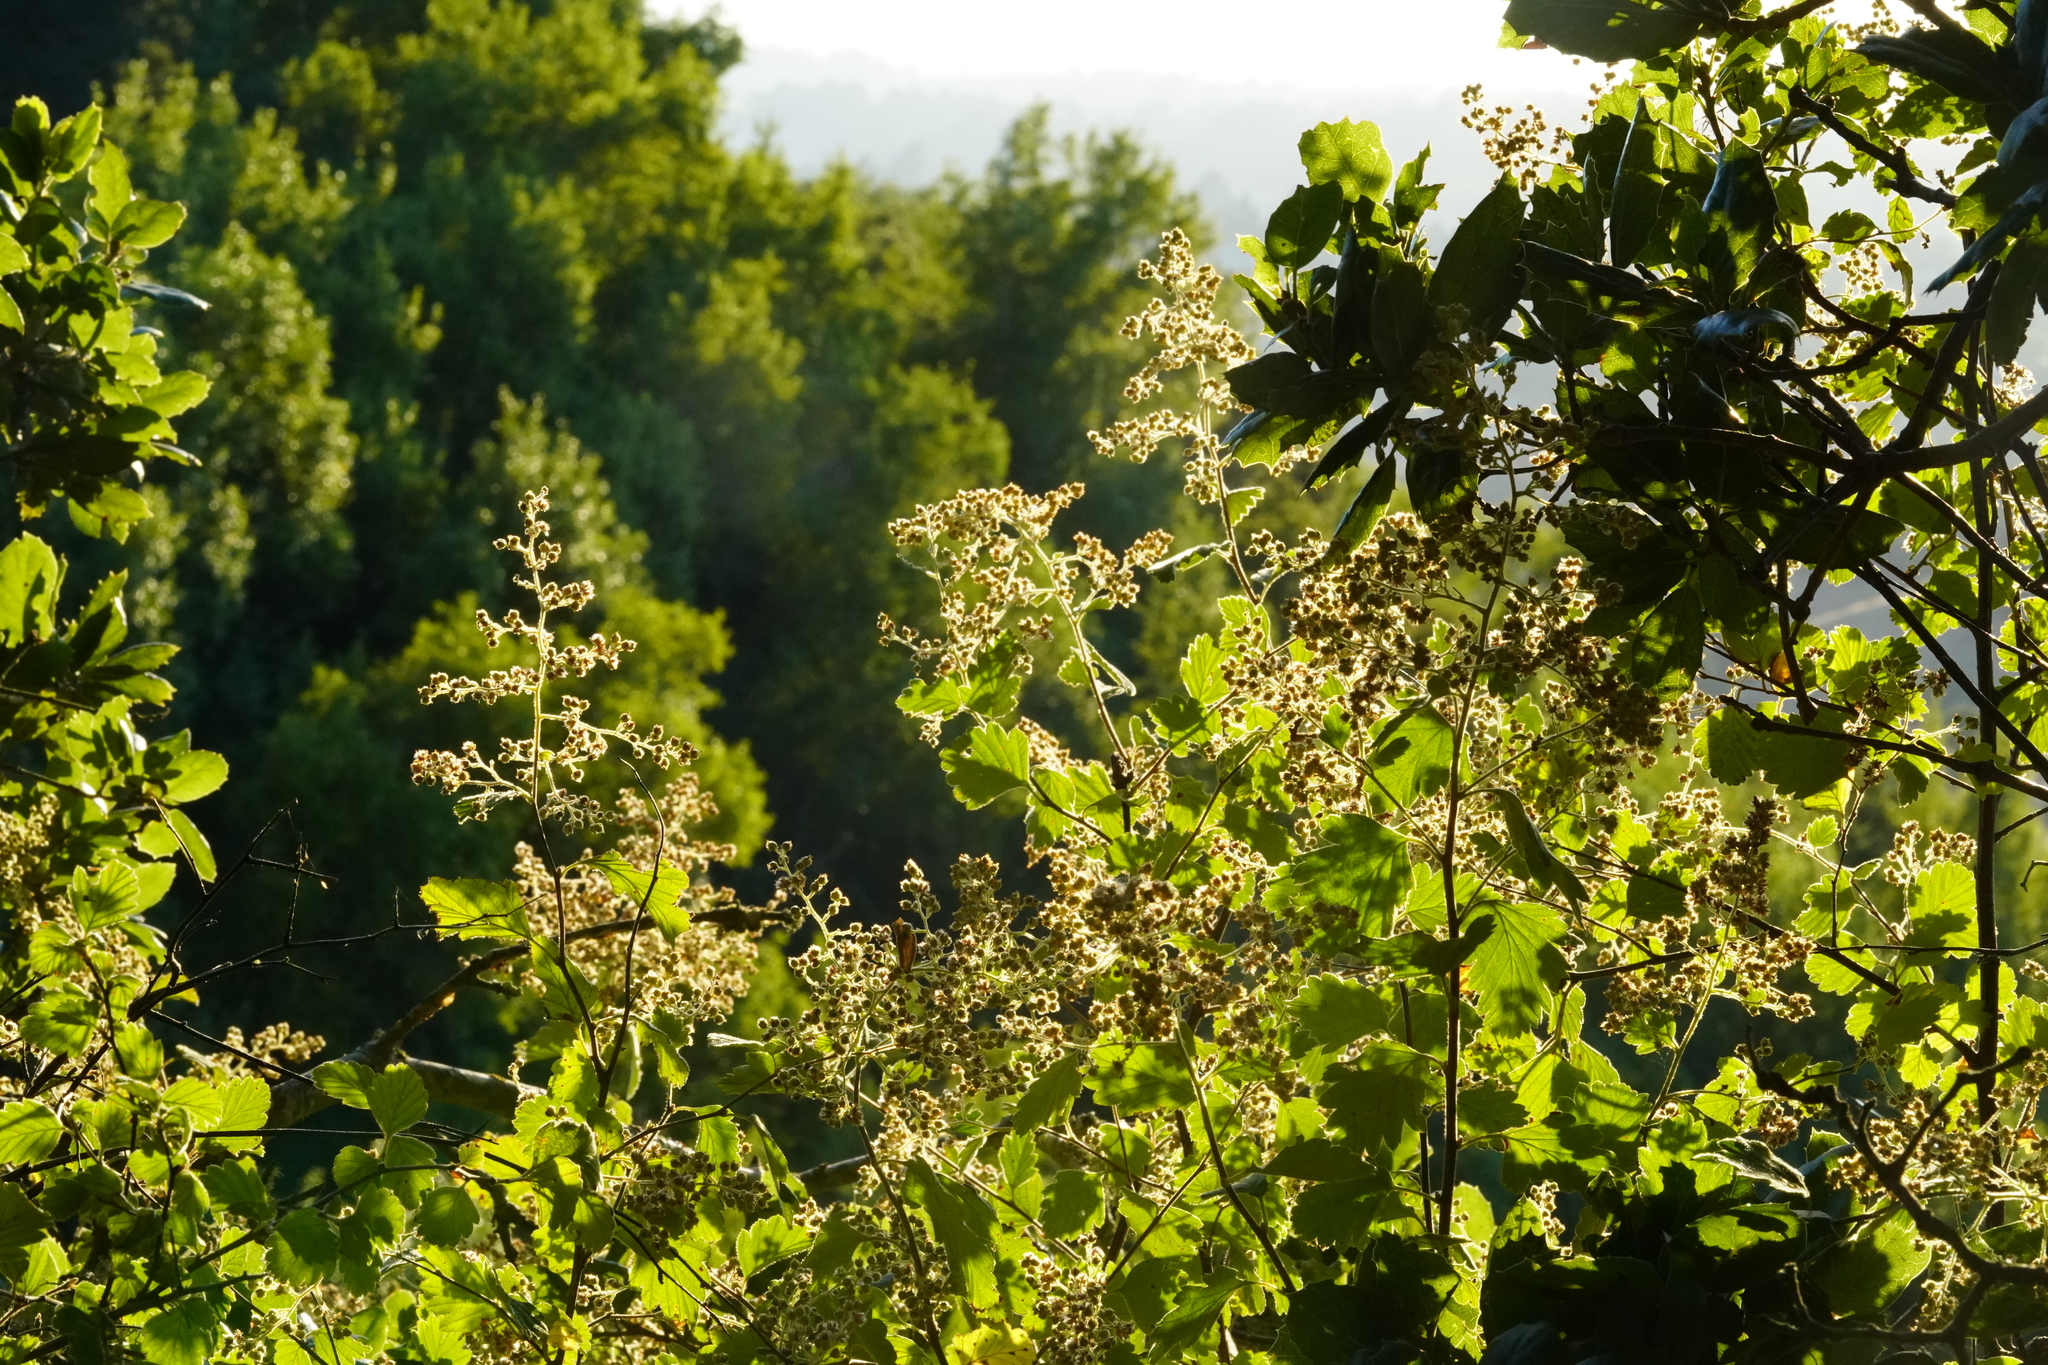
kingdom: Plantae
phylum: Tracheophyta
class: Magnoliopsida
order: Rosales
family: Rosaceae
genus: Holodiscus
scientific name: Holodiscus discolor
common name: Oceanspray
